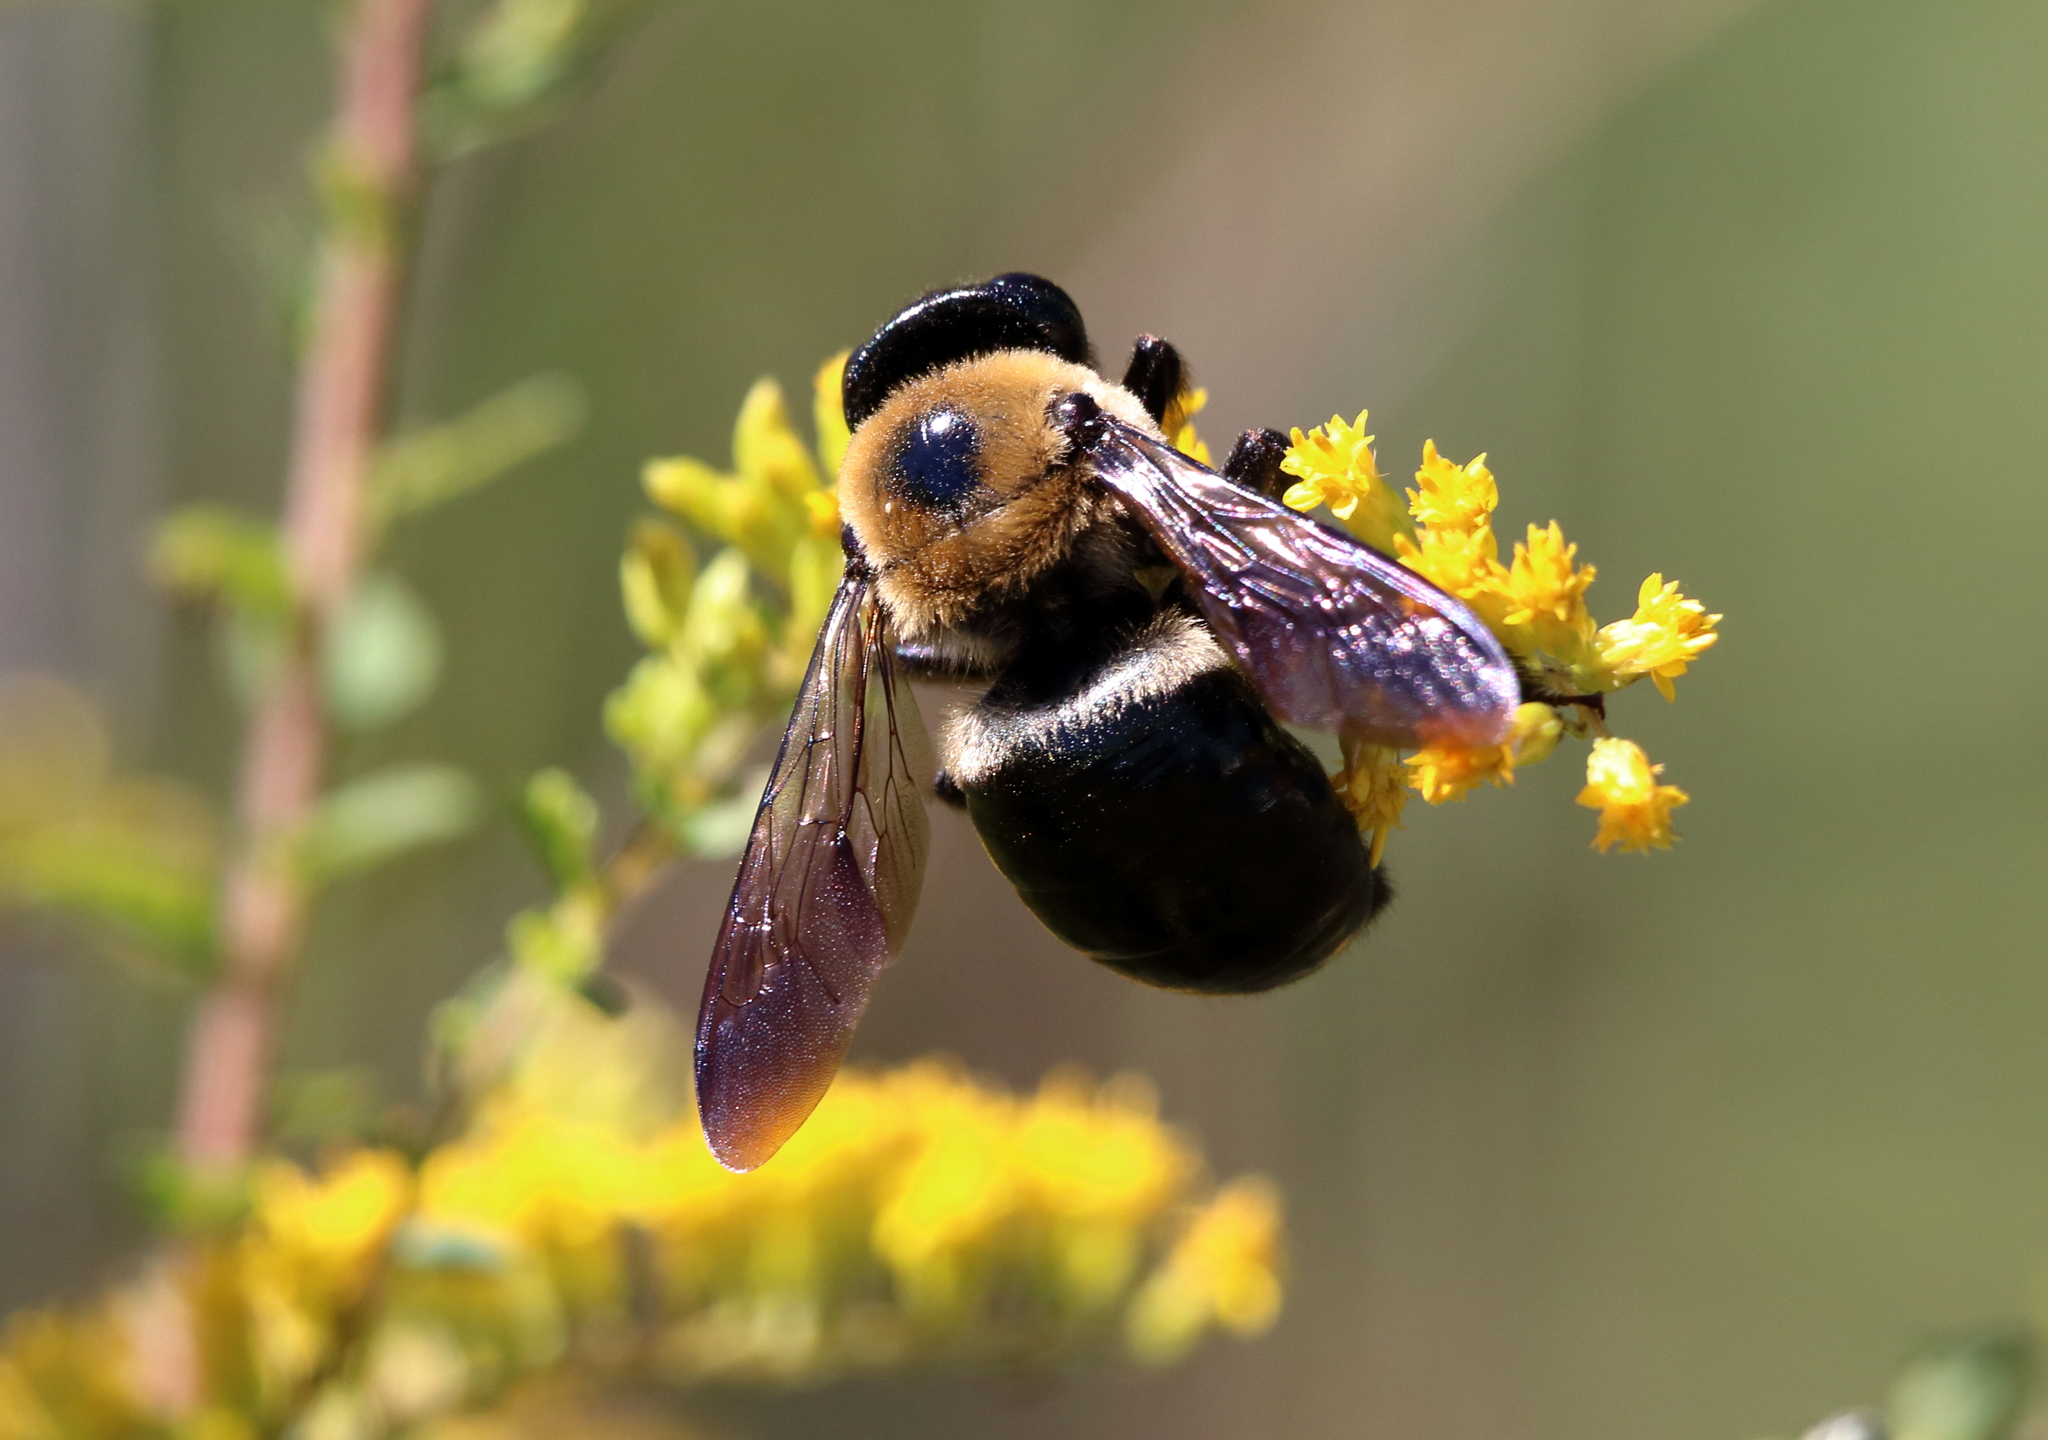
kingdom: Animalia
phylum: Arthropoda
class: Insecta
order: Hymenoptera
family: Apidae
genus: Xylocopa
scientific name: Xylocopa virginica
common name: Carpenter bee
